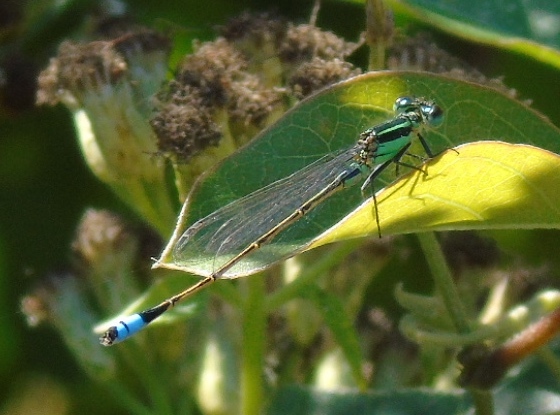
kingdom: Animalia
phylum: Arthropoda
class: Insecta
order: Odonata
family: Coenagrionidae
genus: Ischnura
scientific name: Ischnura ramburii
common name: Rambur's forktail
